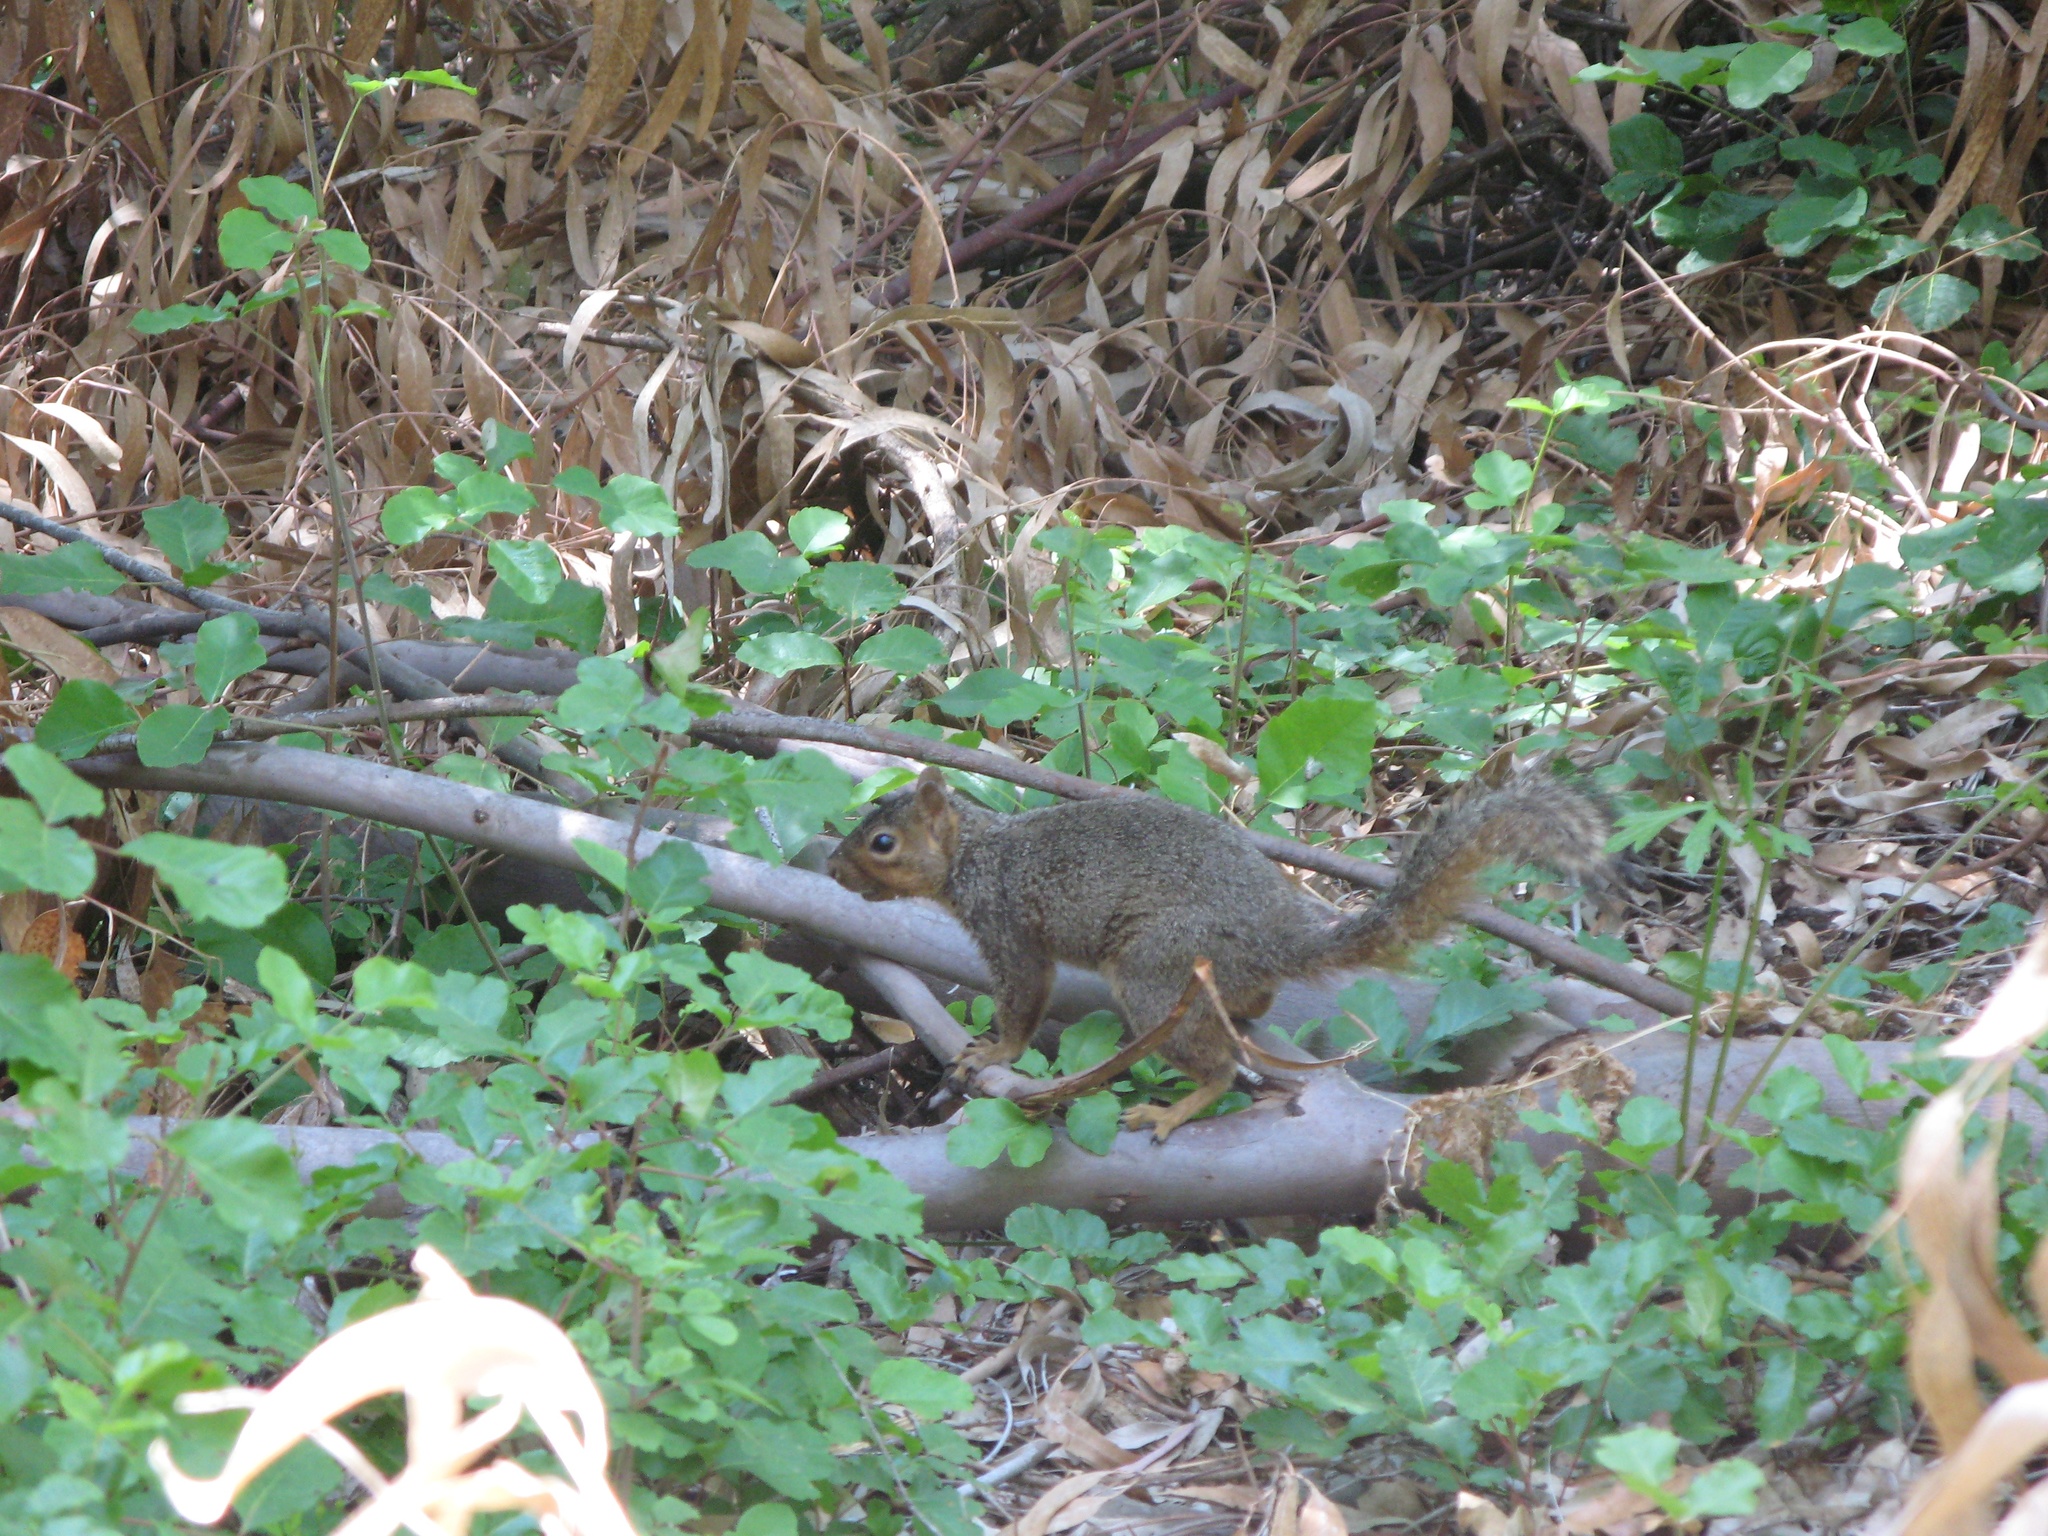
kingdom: Animalia
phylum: Chordata
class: Mammalia
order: Rodentia
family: Sciuridae
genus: Sciurus
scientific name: Sciurus niger
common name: Fox squirrel
